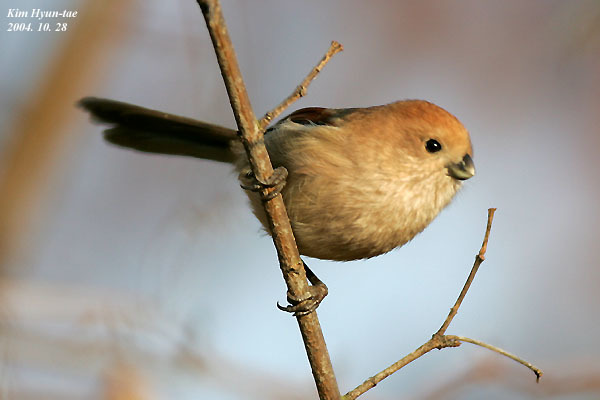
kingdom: Animalia
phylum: Chordata
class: Aves
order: Passeriformes
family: Sylviidae
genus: Sinosuthora
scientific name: Sinosuthora webbiana
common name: Vinous-throated parrotbill
